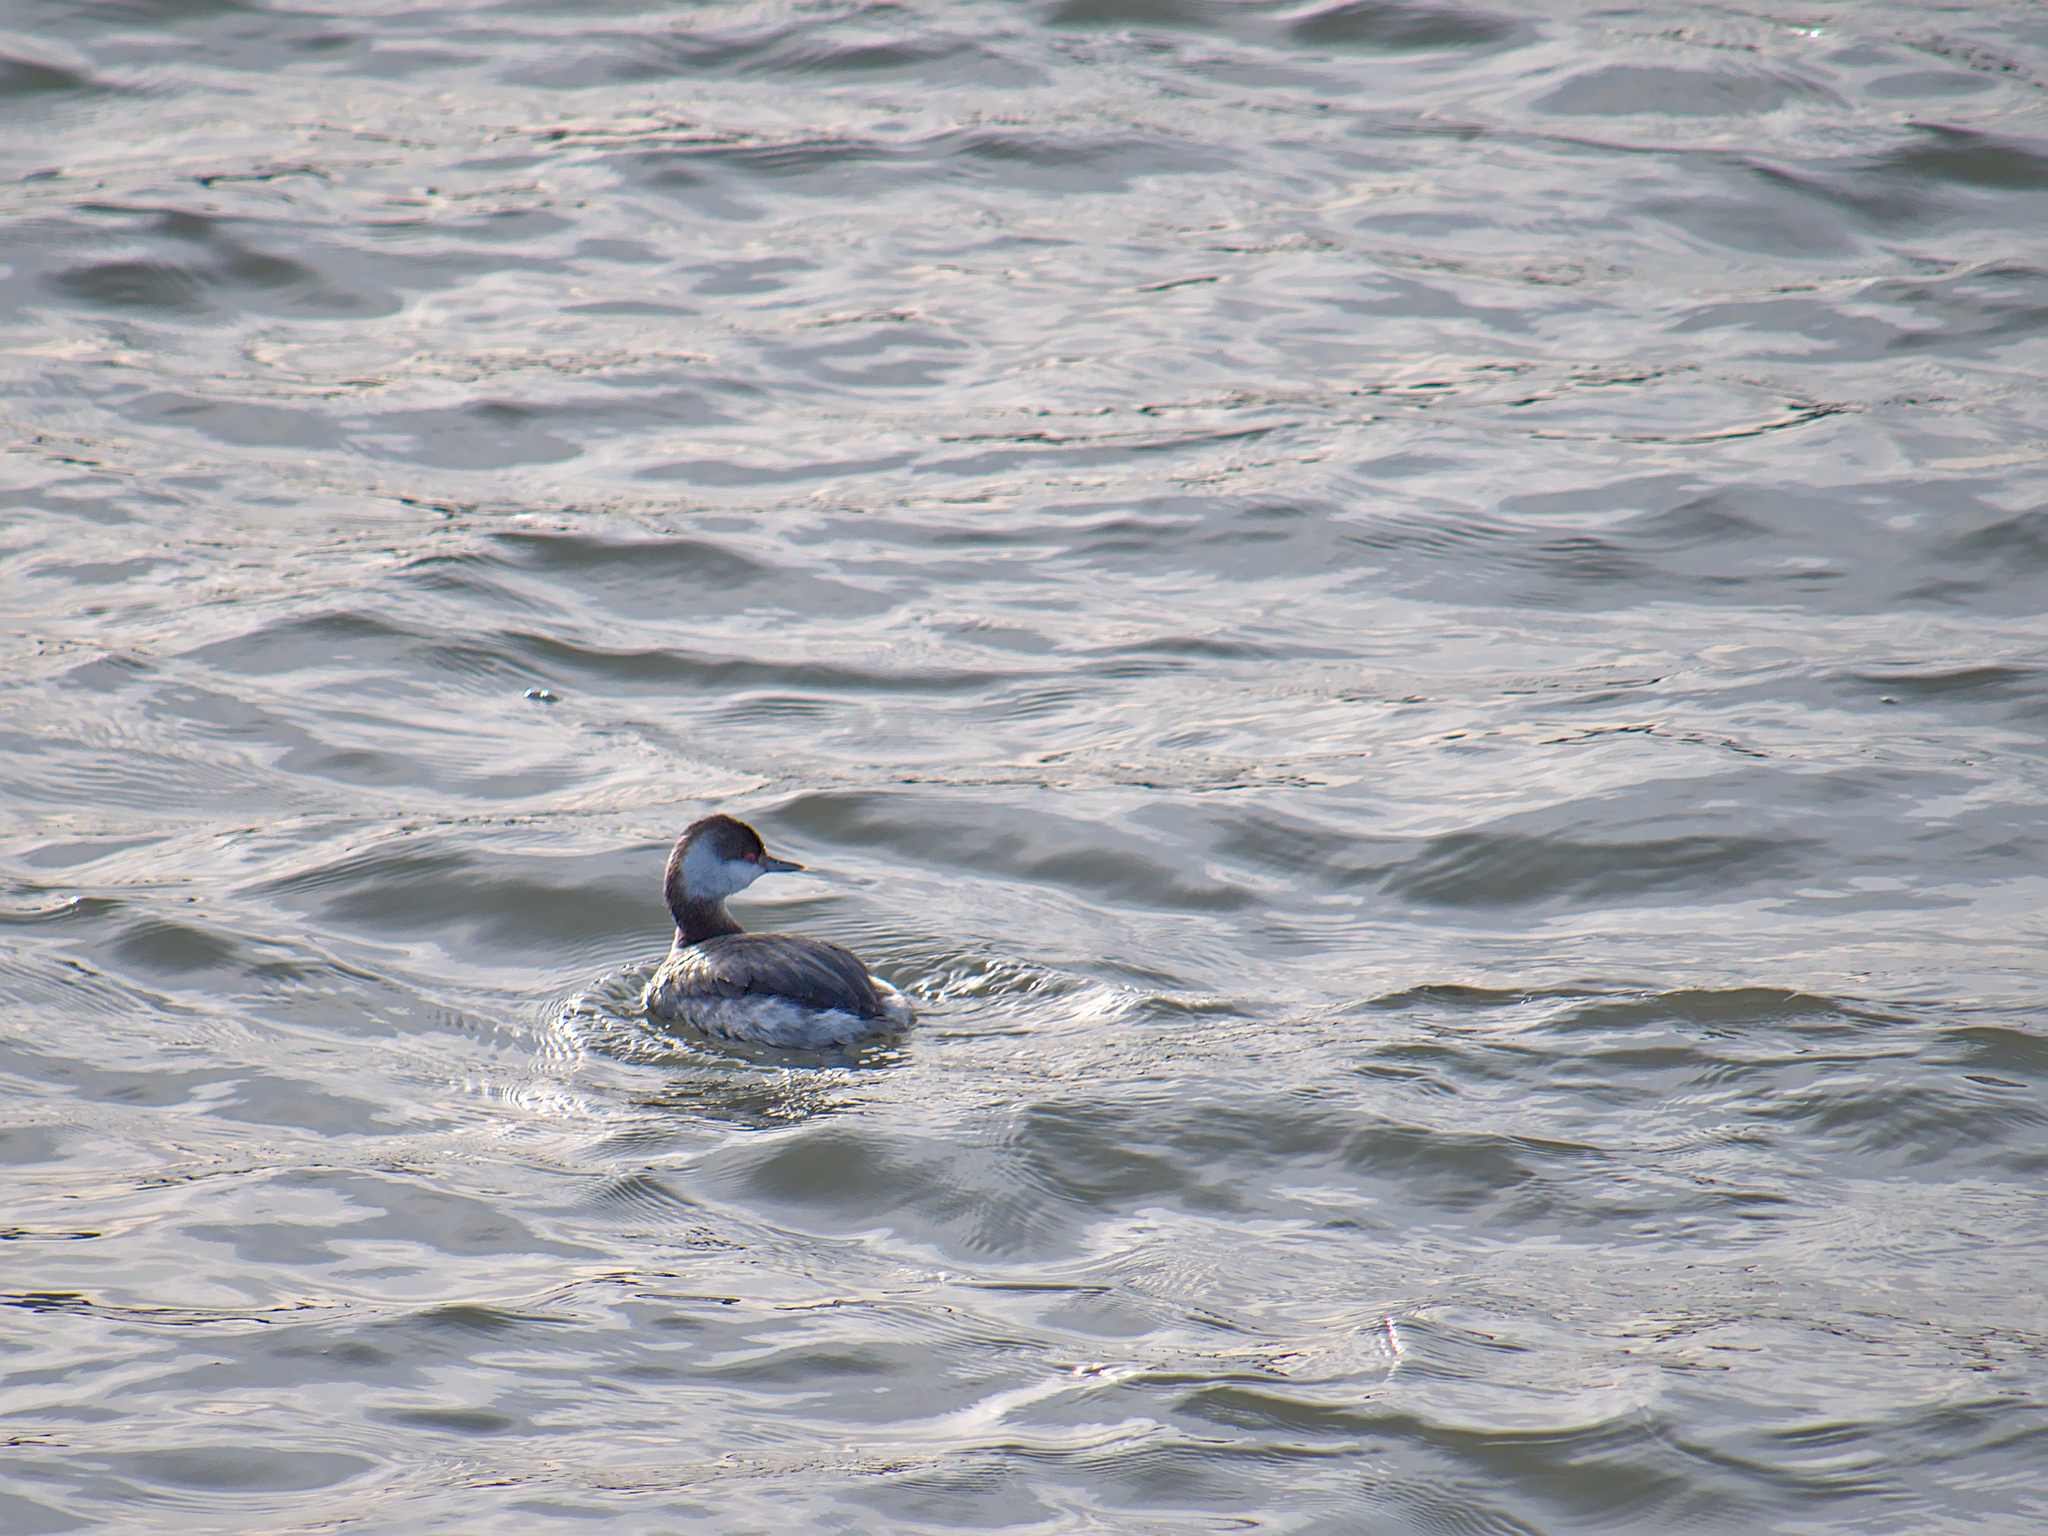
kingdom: Animalia
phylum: Chordata
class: Aves
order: Podicipediformes
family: Podicipedidae
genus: Podiceps
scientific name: Podiceps auritus
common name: Horned grebe
